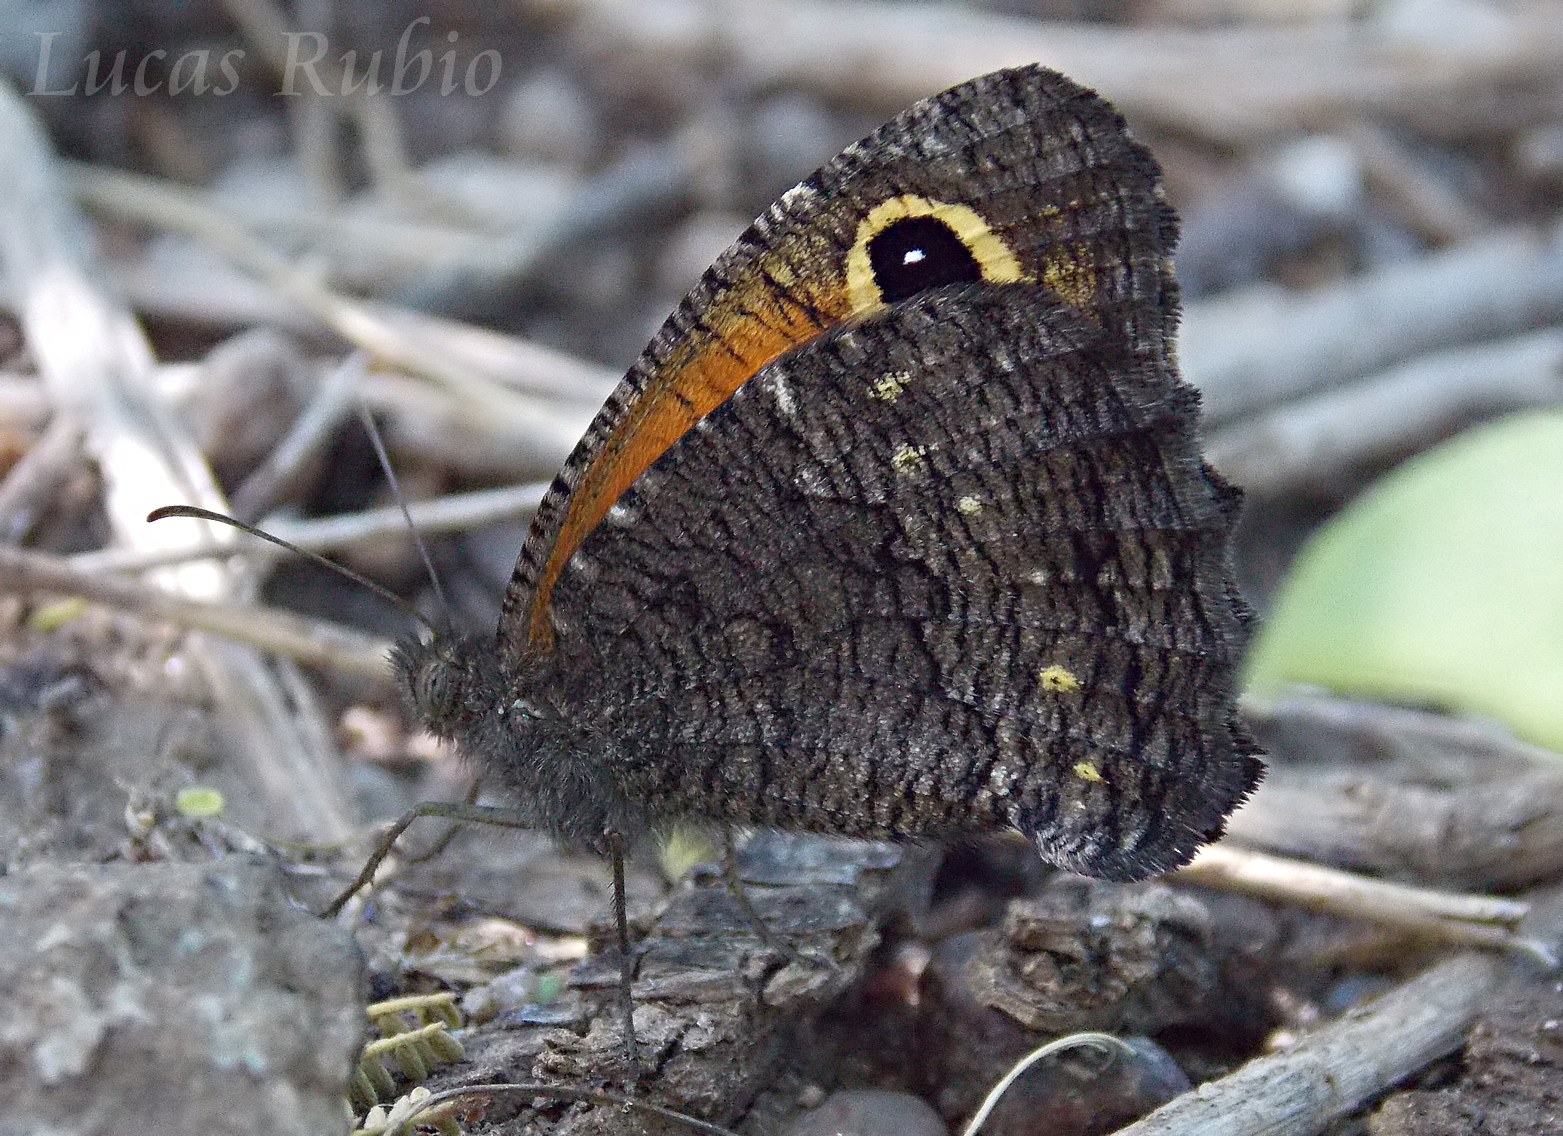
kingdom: Animalia
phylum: Arthropoda
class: Insecta
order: Lepidoptera
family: Nymphalidae
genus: Haywardella
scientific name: Haywardella edmondsii
